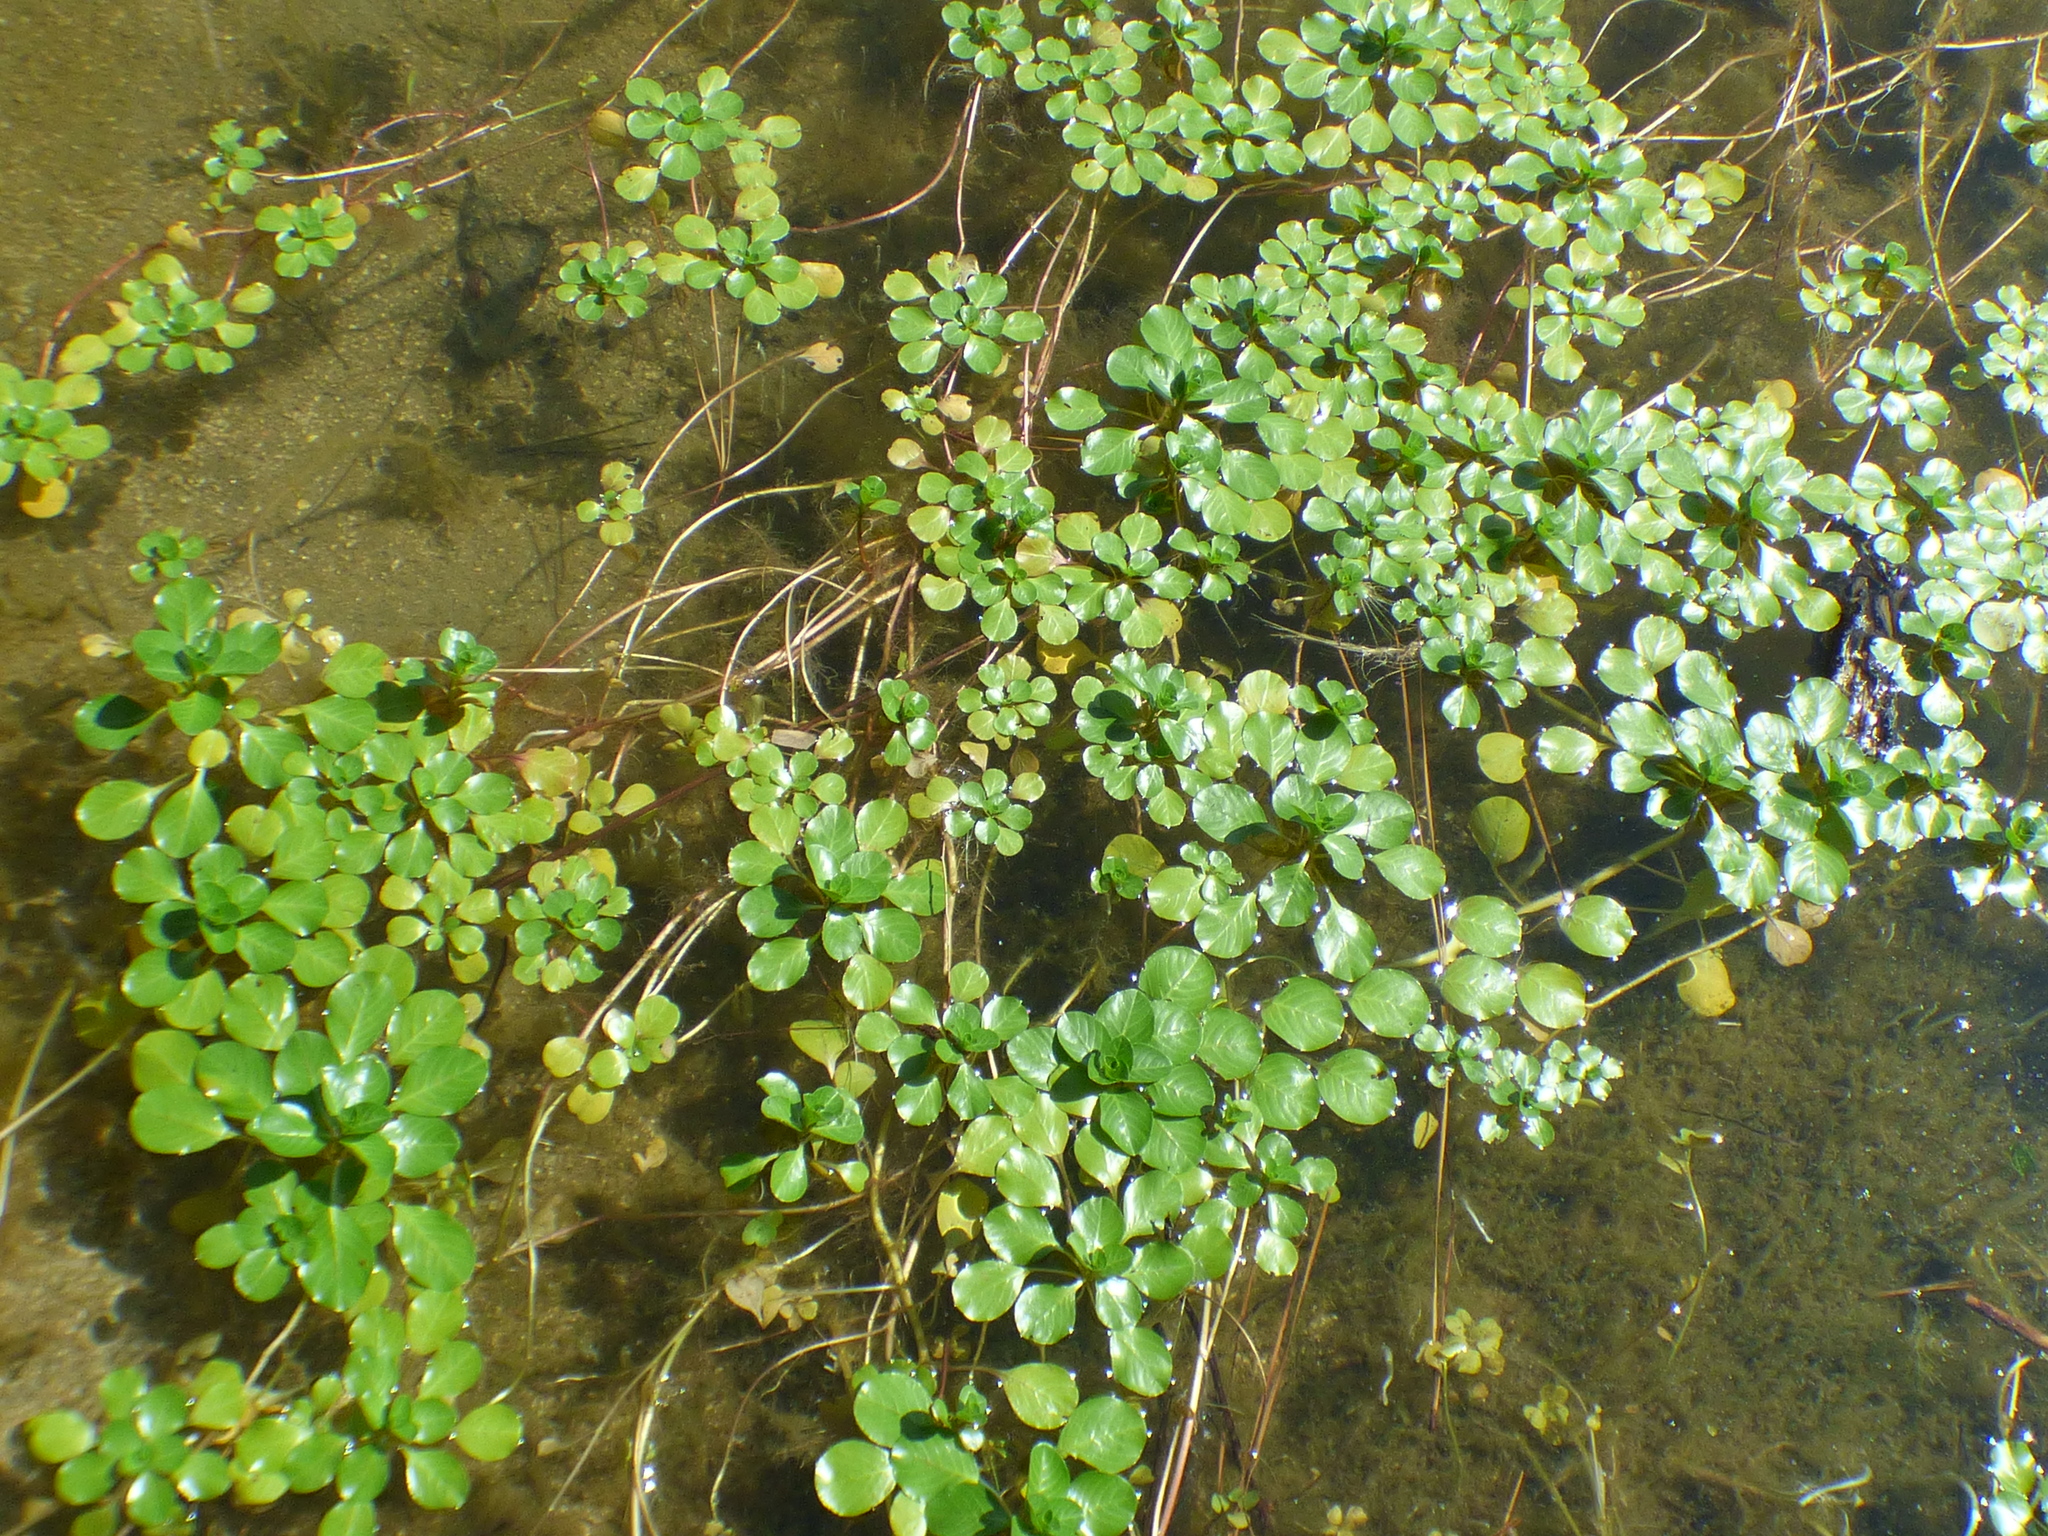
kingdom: Plantae
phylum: Tracheophyta
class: Magnoliopsida
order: Myrtales
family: Onagraceae
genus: Ludwigia
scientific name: Ludwigia peploides
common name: Floating primrose-willow
